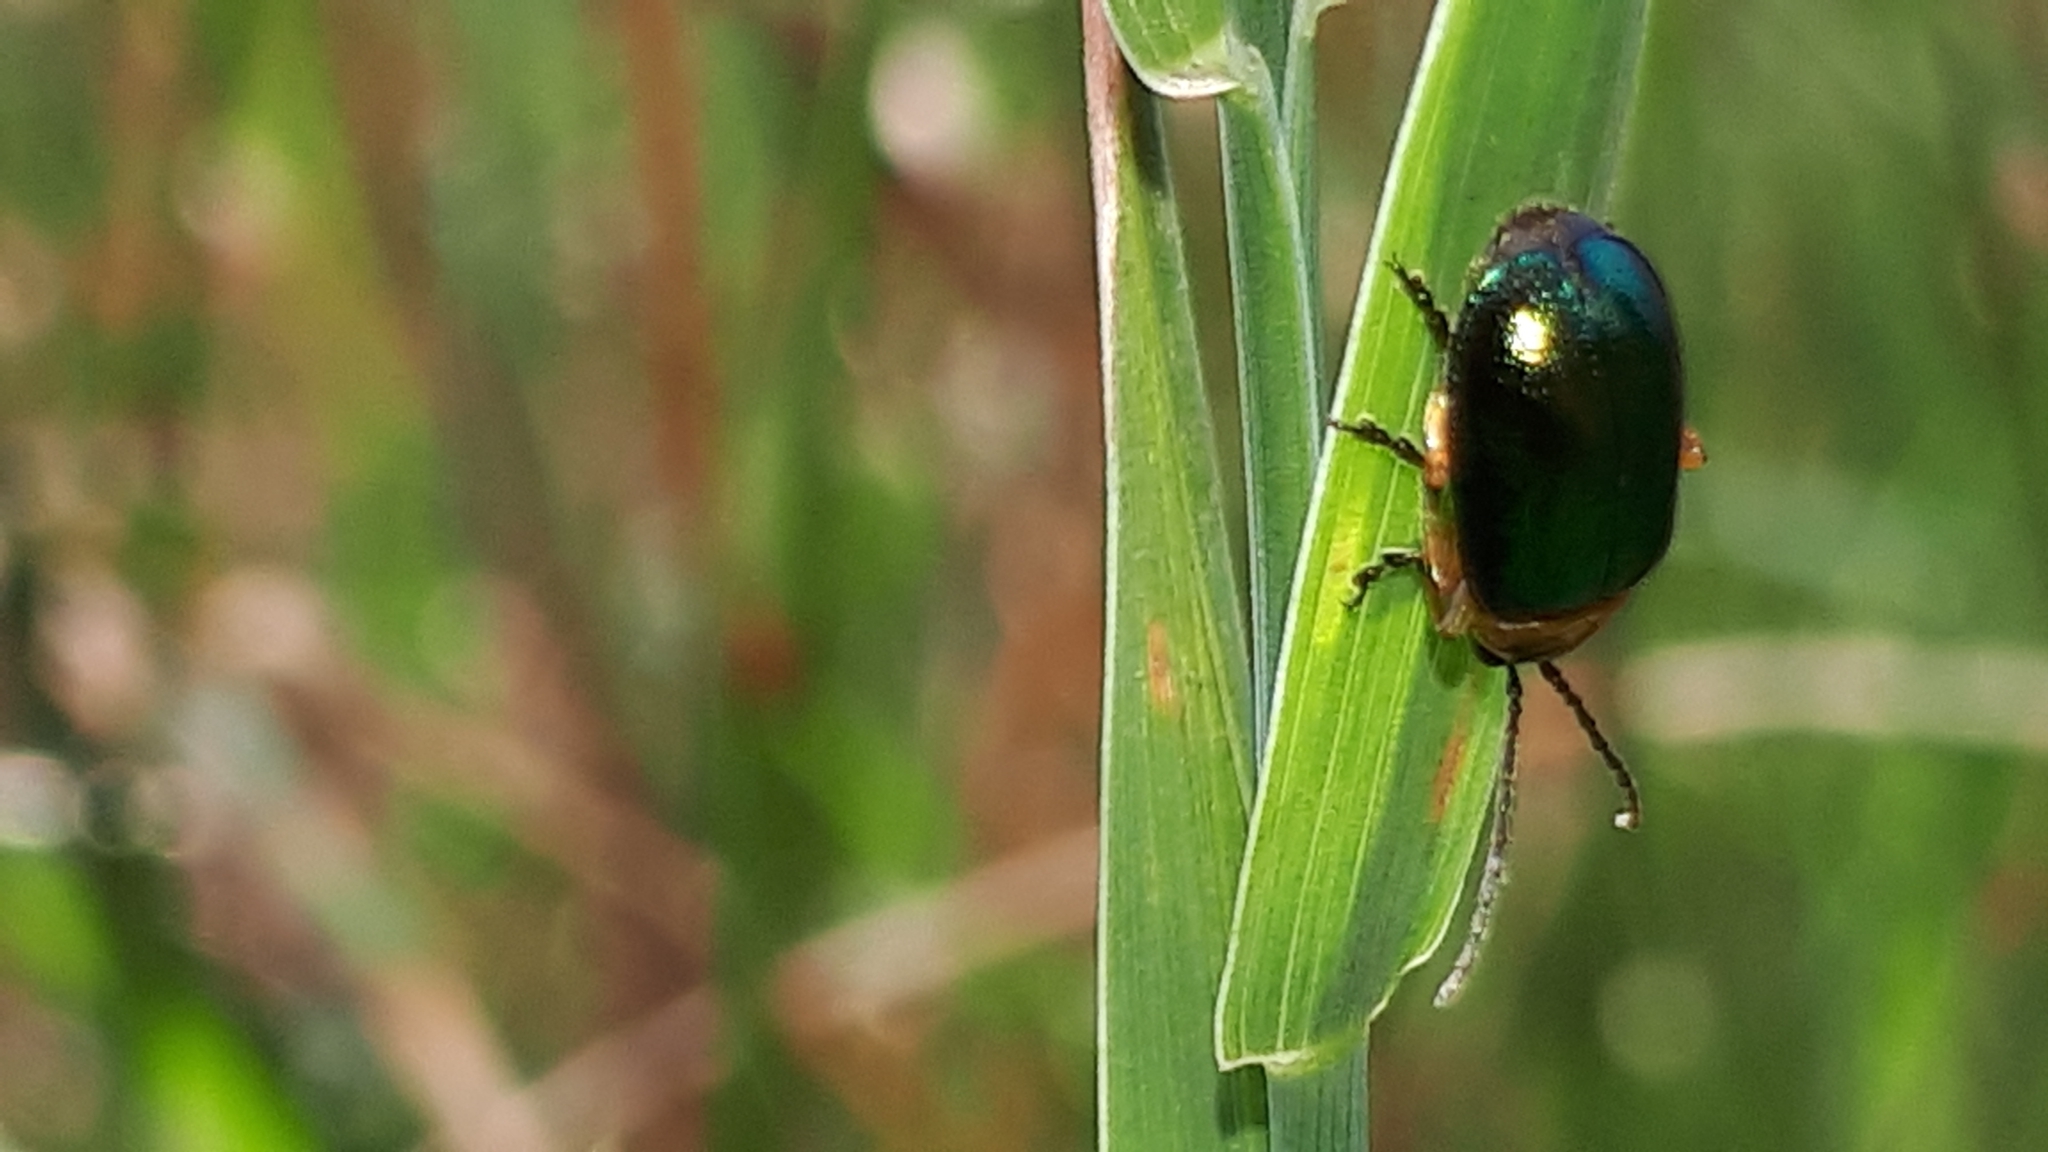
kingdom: Animalia
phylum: Arthropoda
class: Insecta
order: Coleoptera
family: Chrysomelidae
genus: Sermylassa
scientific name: Sermylassa halensis
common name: Leaf beetle
